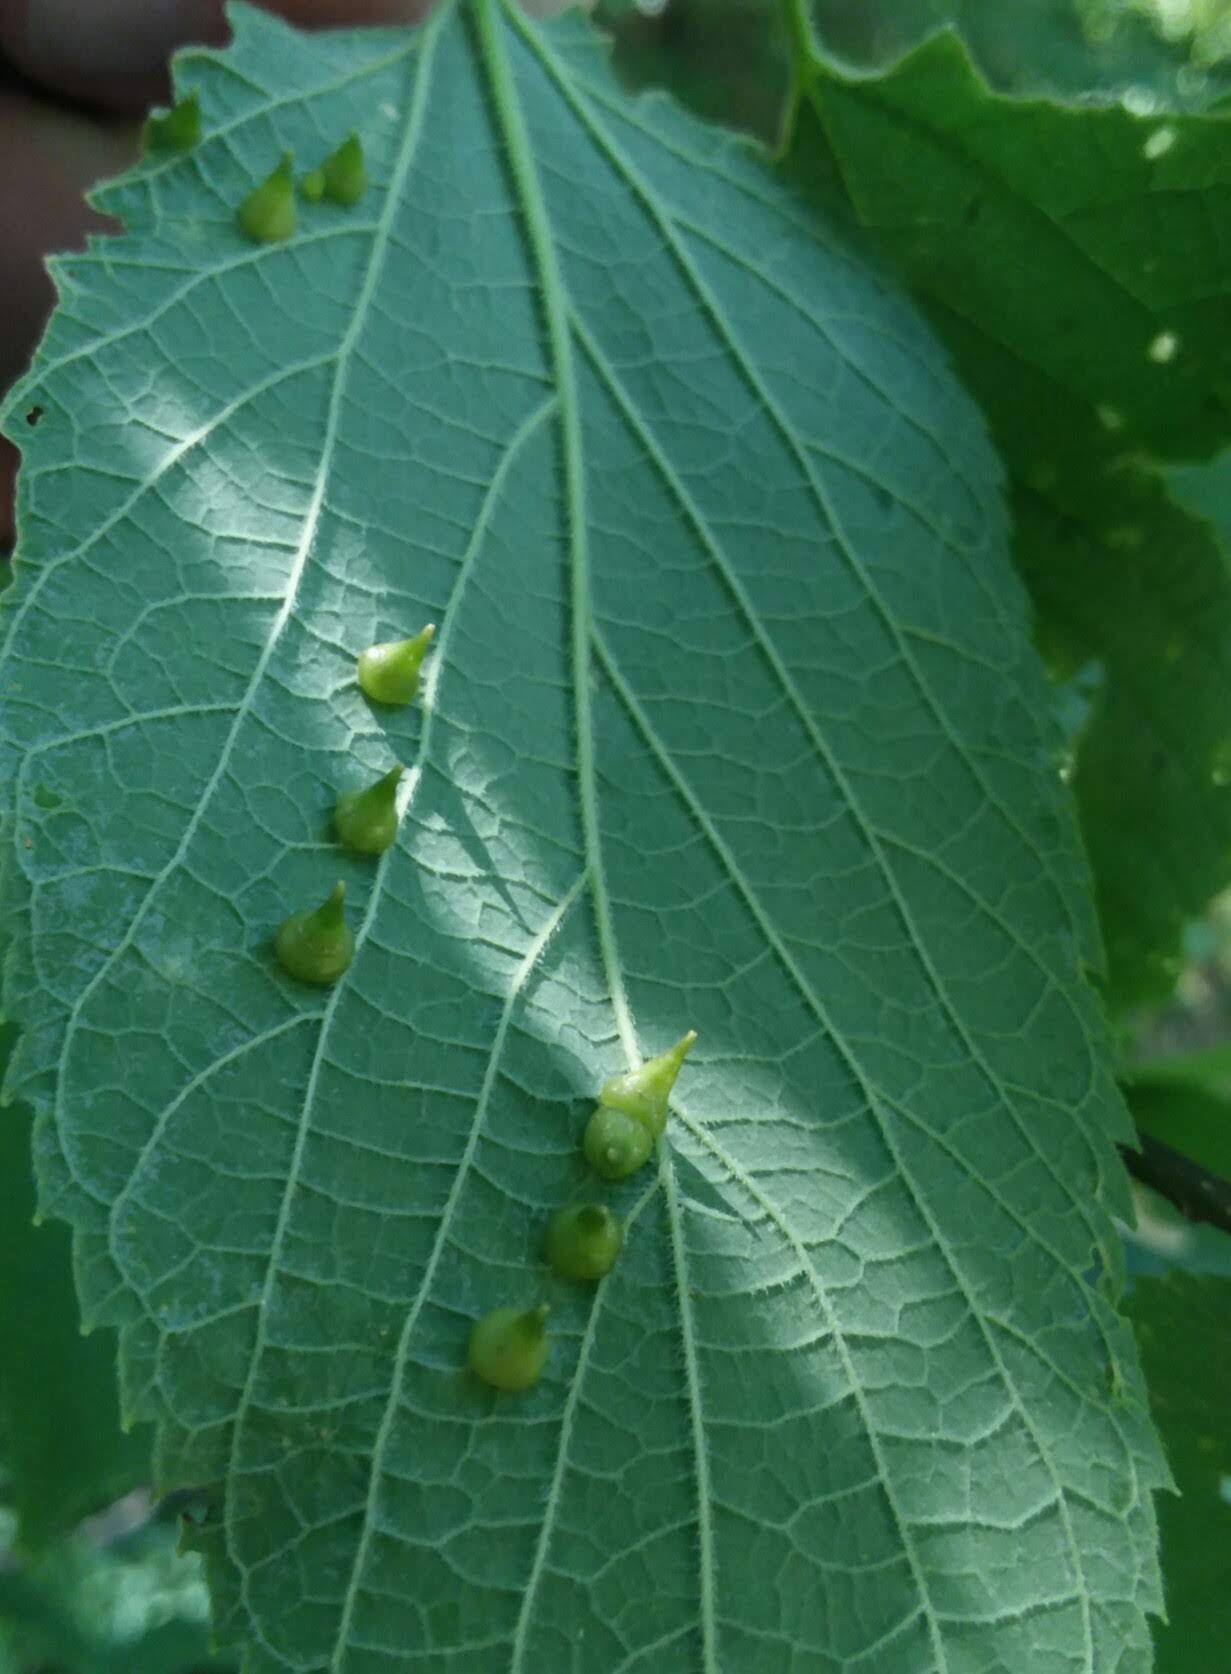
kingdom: Animalia
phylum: Arthropoda
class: Insecta
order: Diptera
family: Cecidomyiidae
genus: Celticecis
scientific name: Celticecis spiniformis
